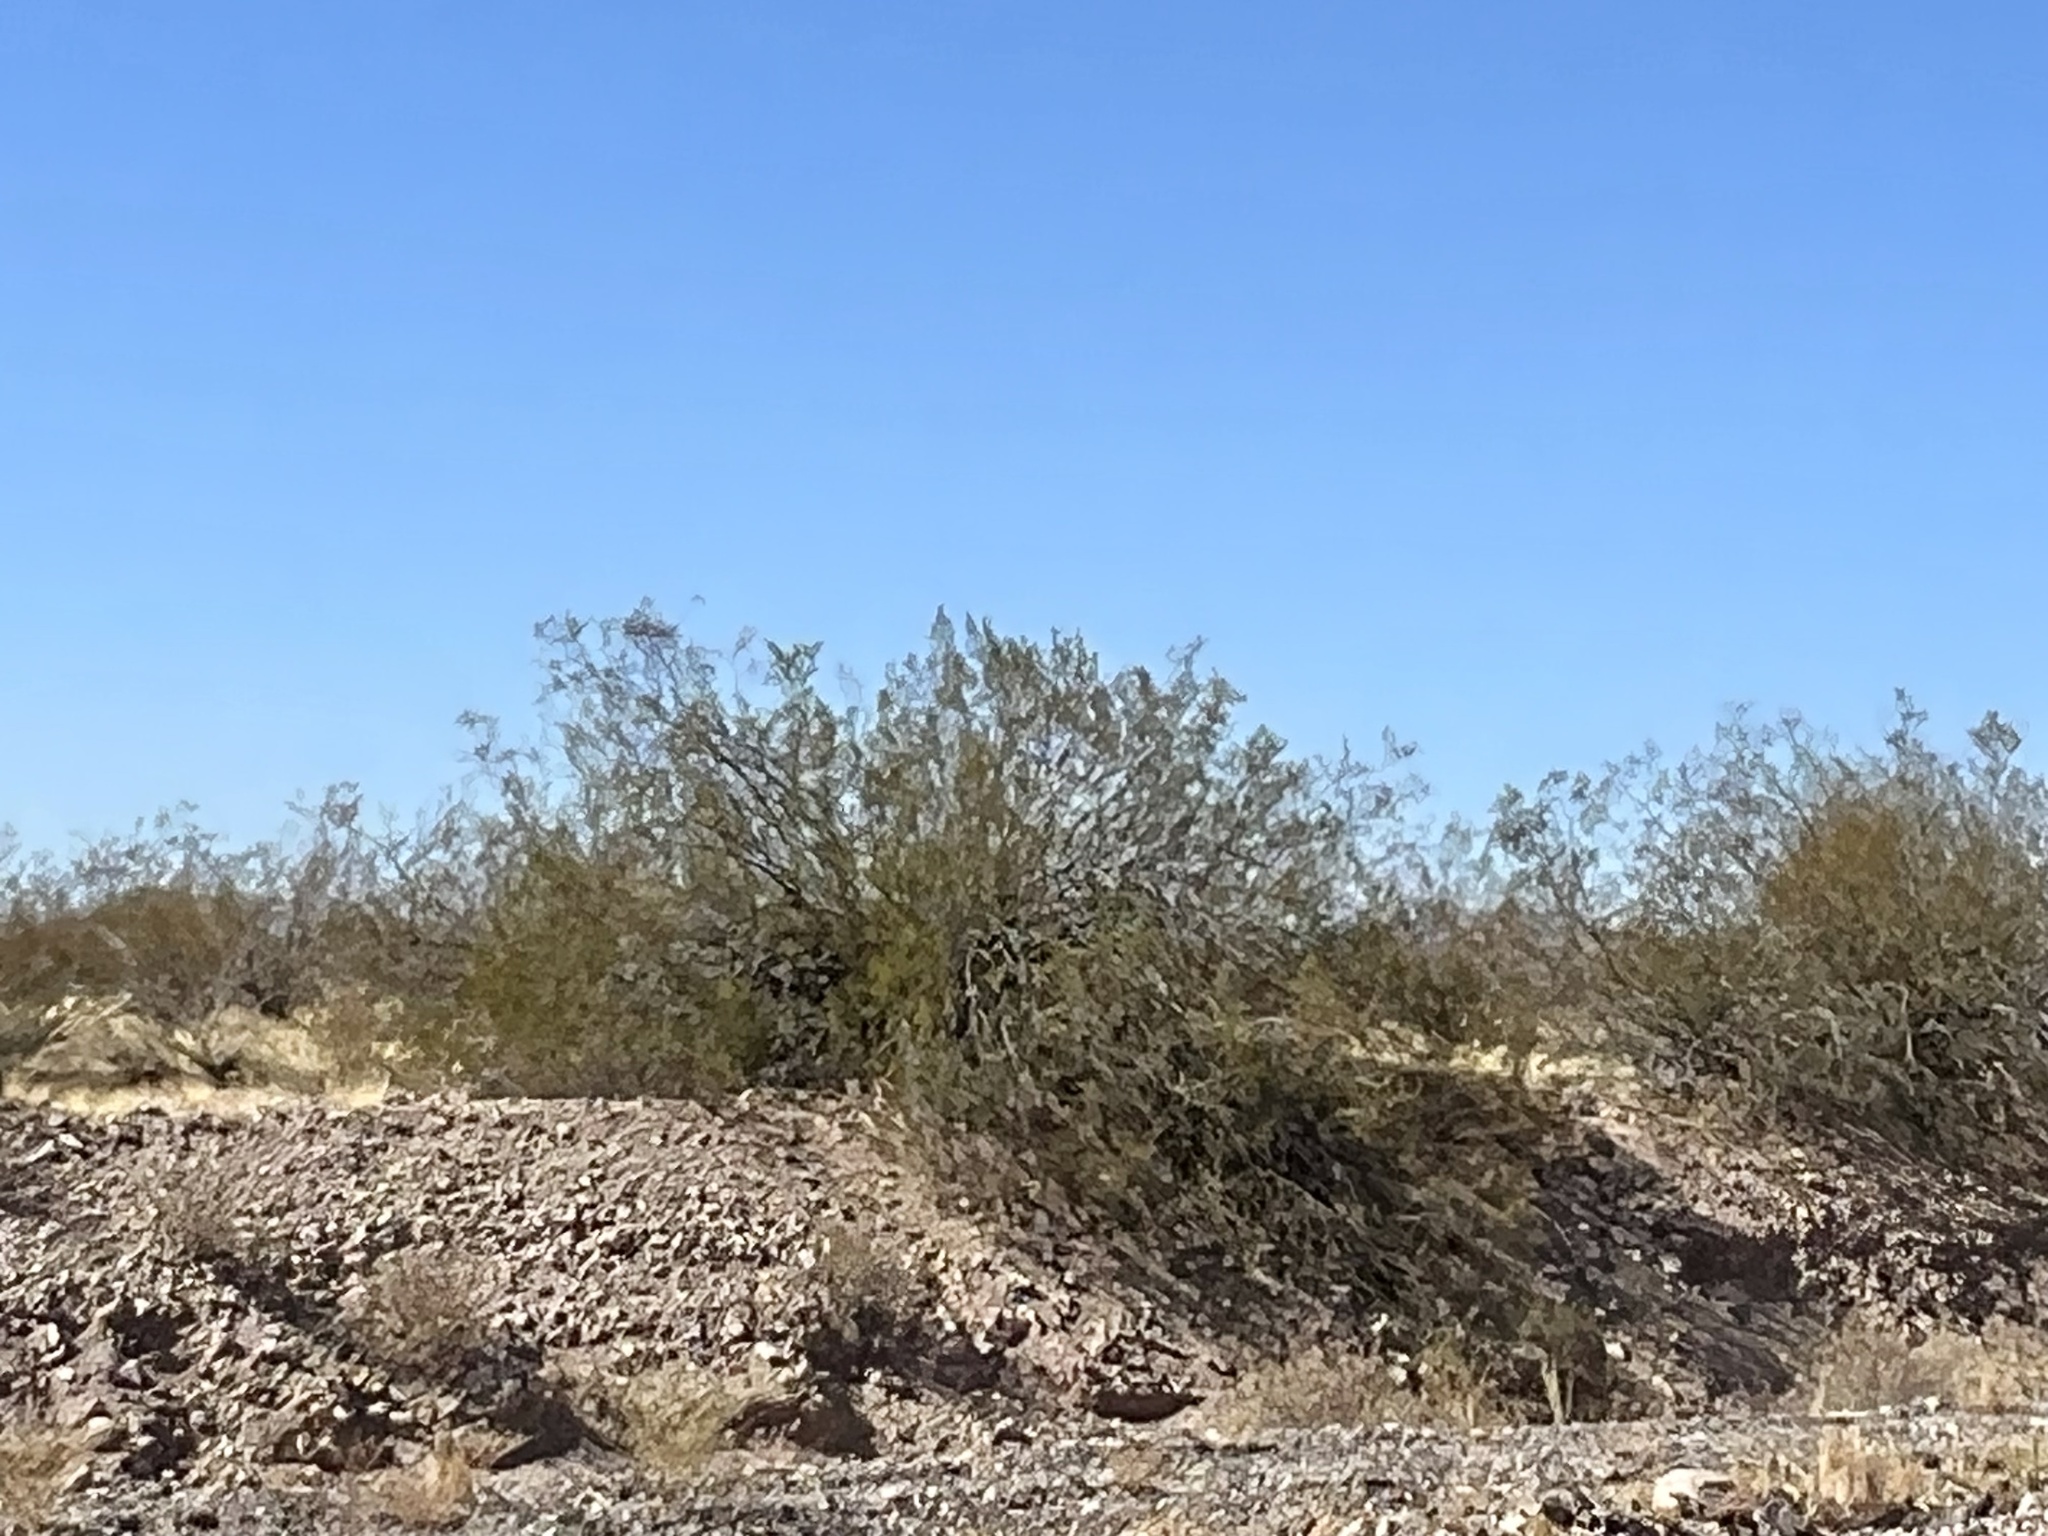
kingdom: Plantae
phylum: Tracheophyta
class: Magnoliopsida
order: Zygophyllales
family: Zygophyllaceae
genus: Larrea
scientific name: Larrea tridentata
